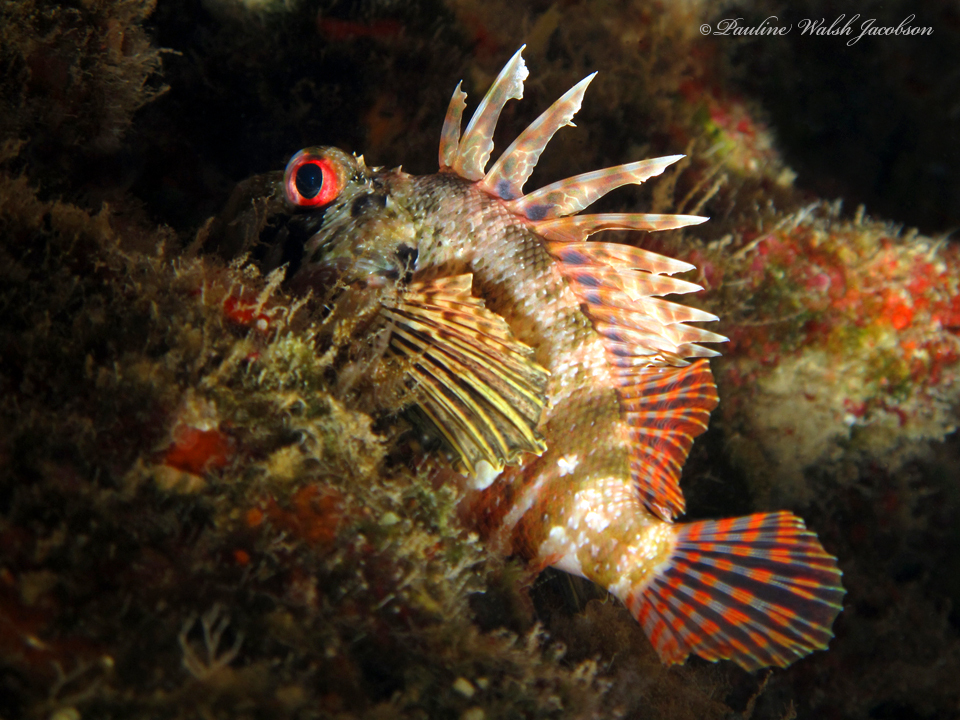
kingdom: Animalia
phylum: Chordata
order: Scorpaeniformes
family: Scorpaenidae
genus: Dendrochirus
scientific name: Dendrochirus barberi
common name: Hawaiian lionfish
